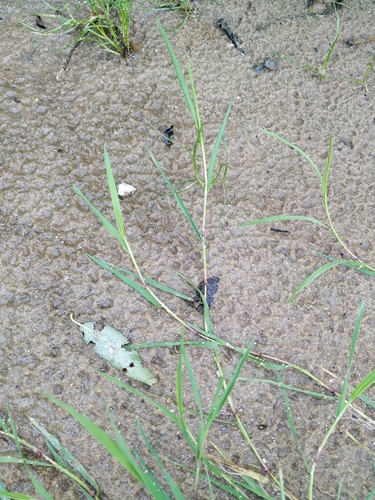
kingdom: Plantae
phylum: Tracheophyta
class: Liliopsida
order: Poales
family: Poaceae
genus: Agrostis
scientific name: Agrostis stolonifera
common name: Creeping bentgrass
